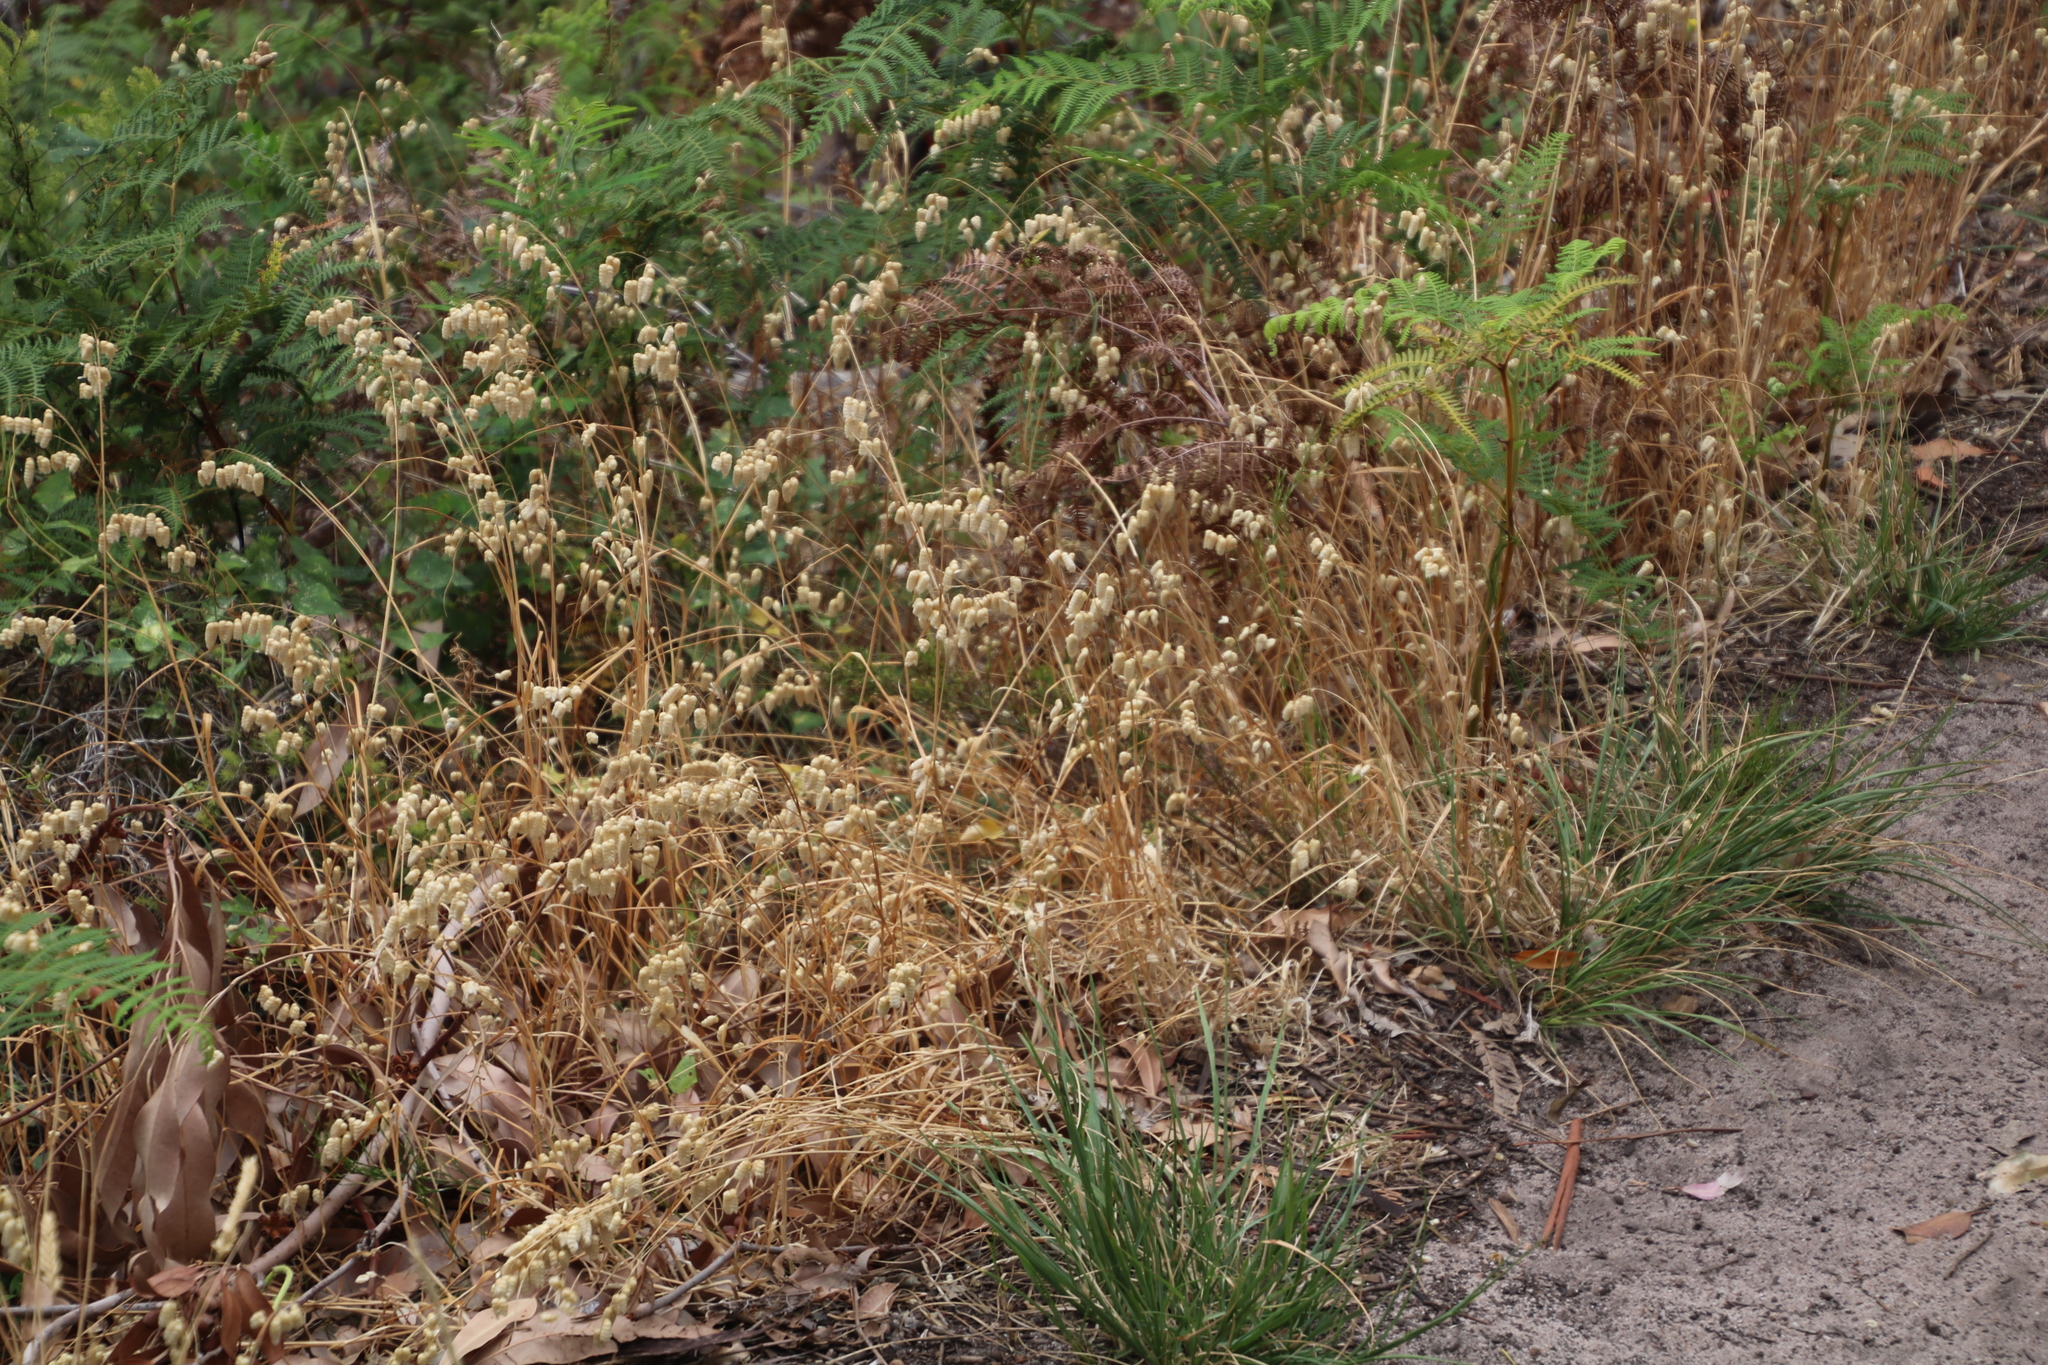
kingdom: Plantae
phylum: Tracheophyta
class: Liliopsida
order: Poales
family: Poaceae
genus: Briza
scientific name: Briza maxima
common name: Big quakinggrass
